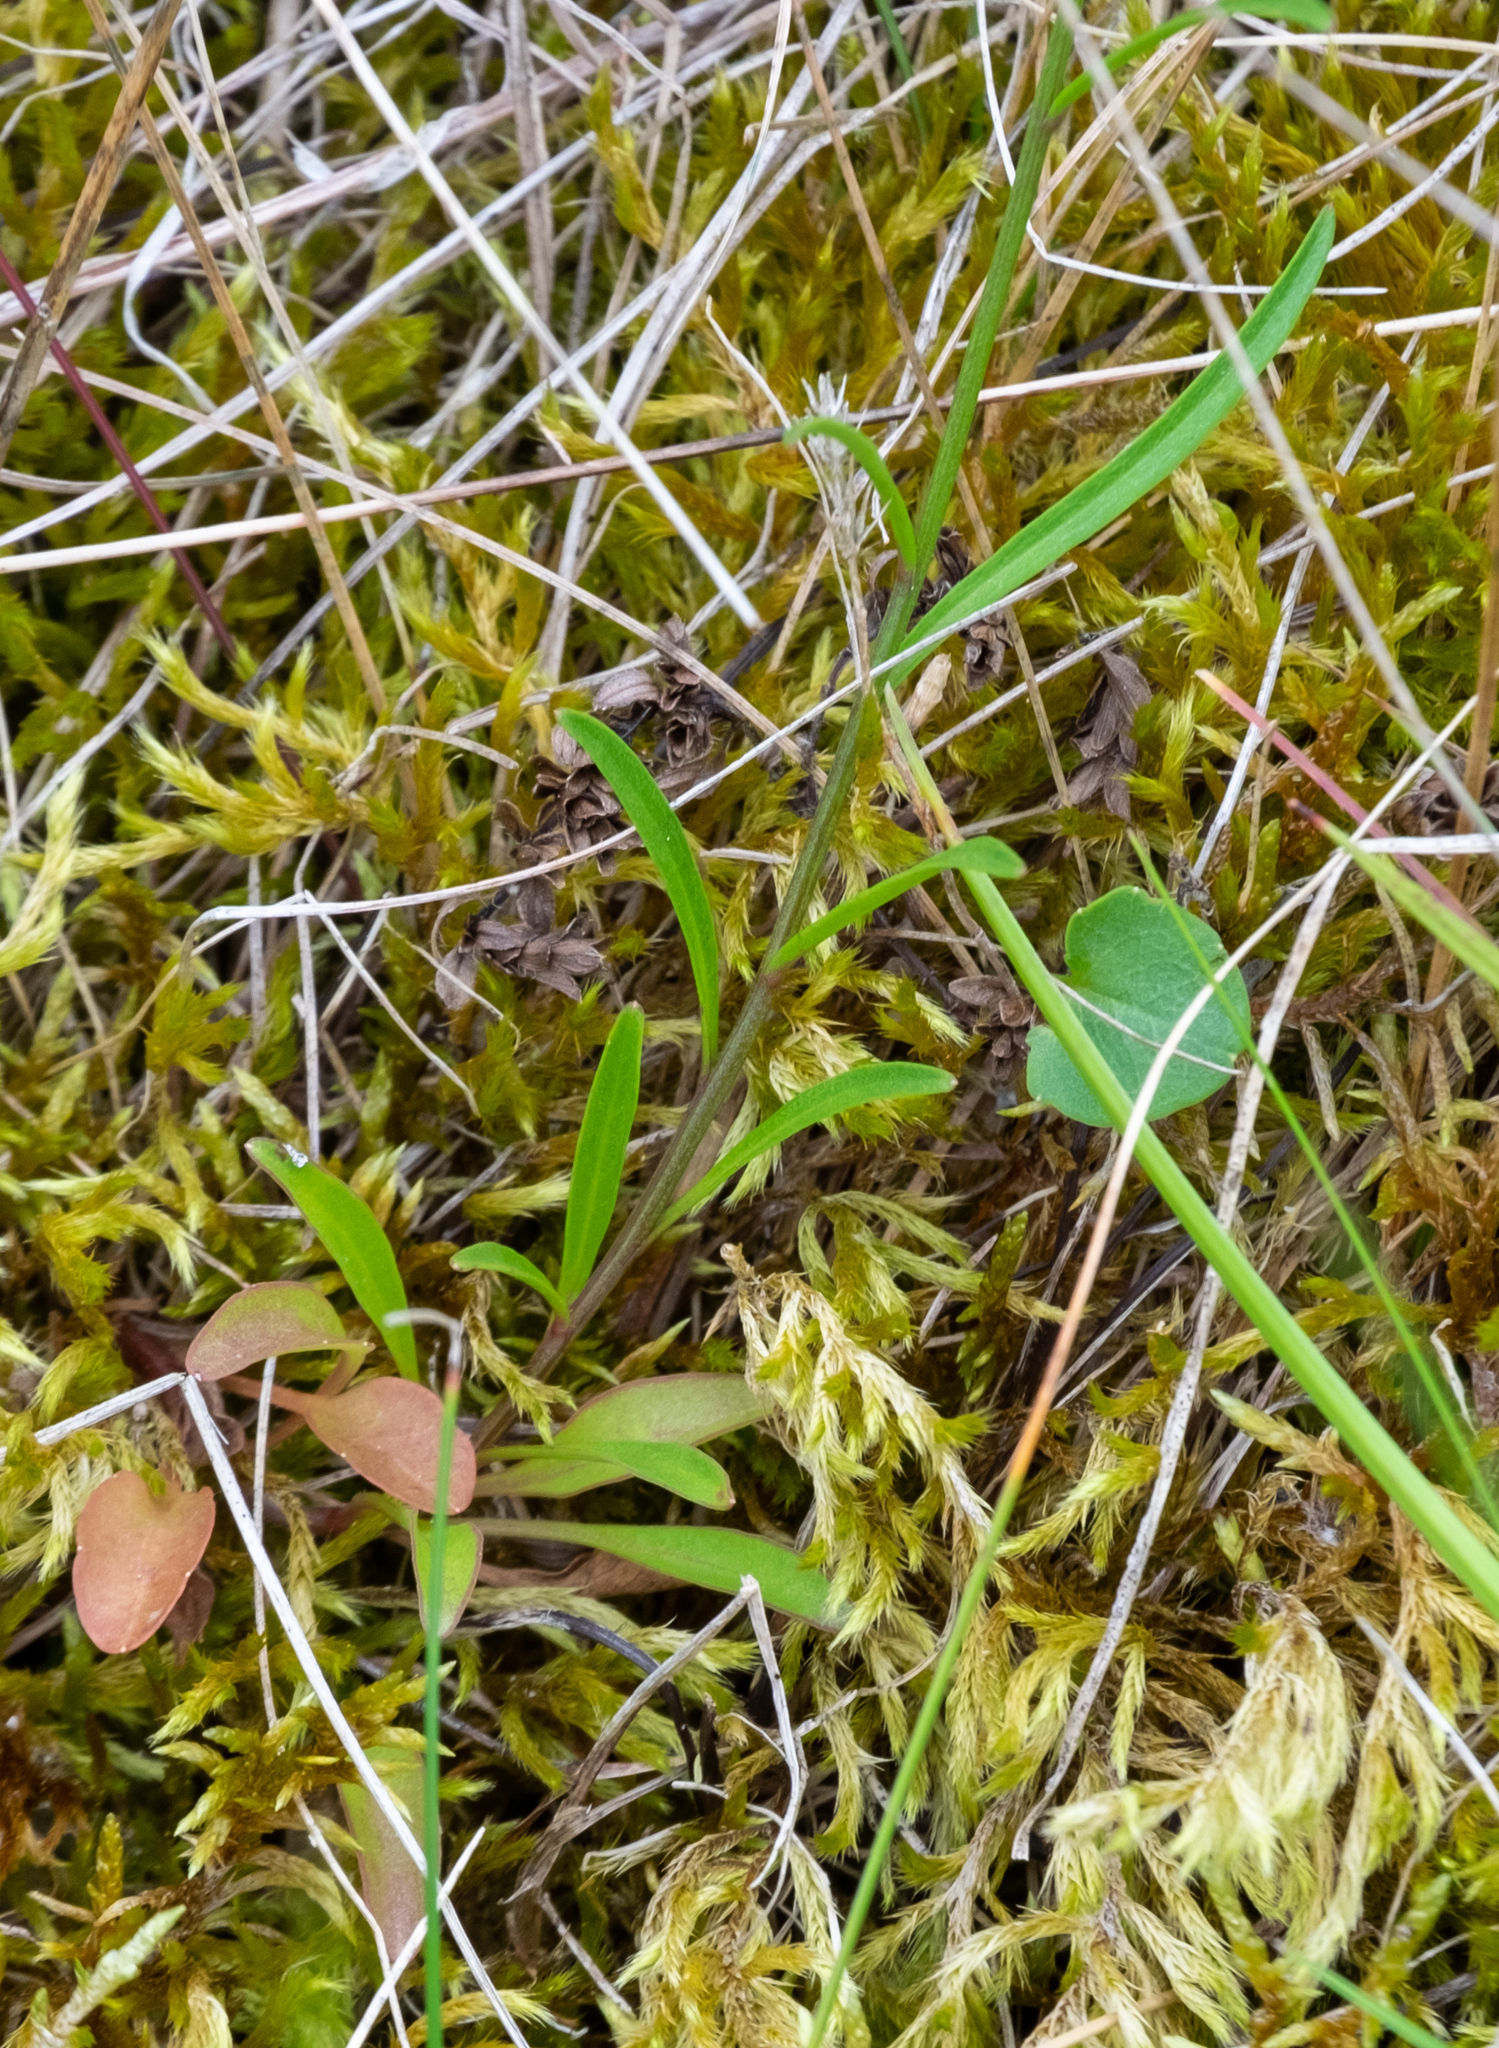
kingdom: Plantae
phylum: Tracheophyta
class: Magnoliopsida
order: Asterales
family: Campanulaceae
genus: Campanula
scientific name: Campanula rotundifolia
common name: Harebell
